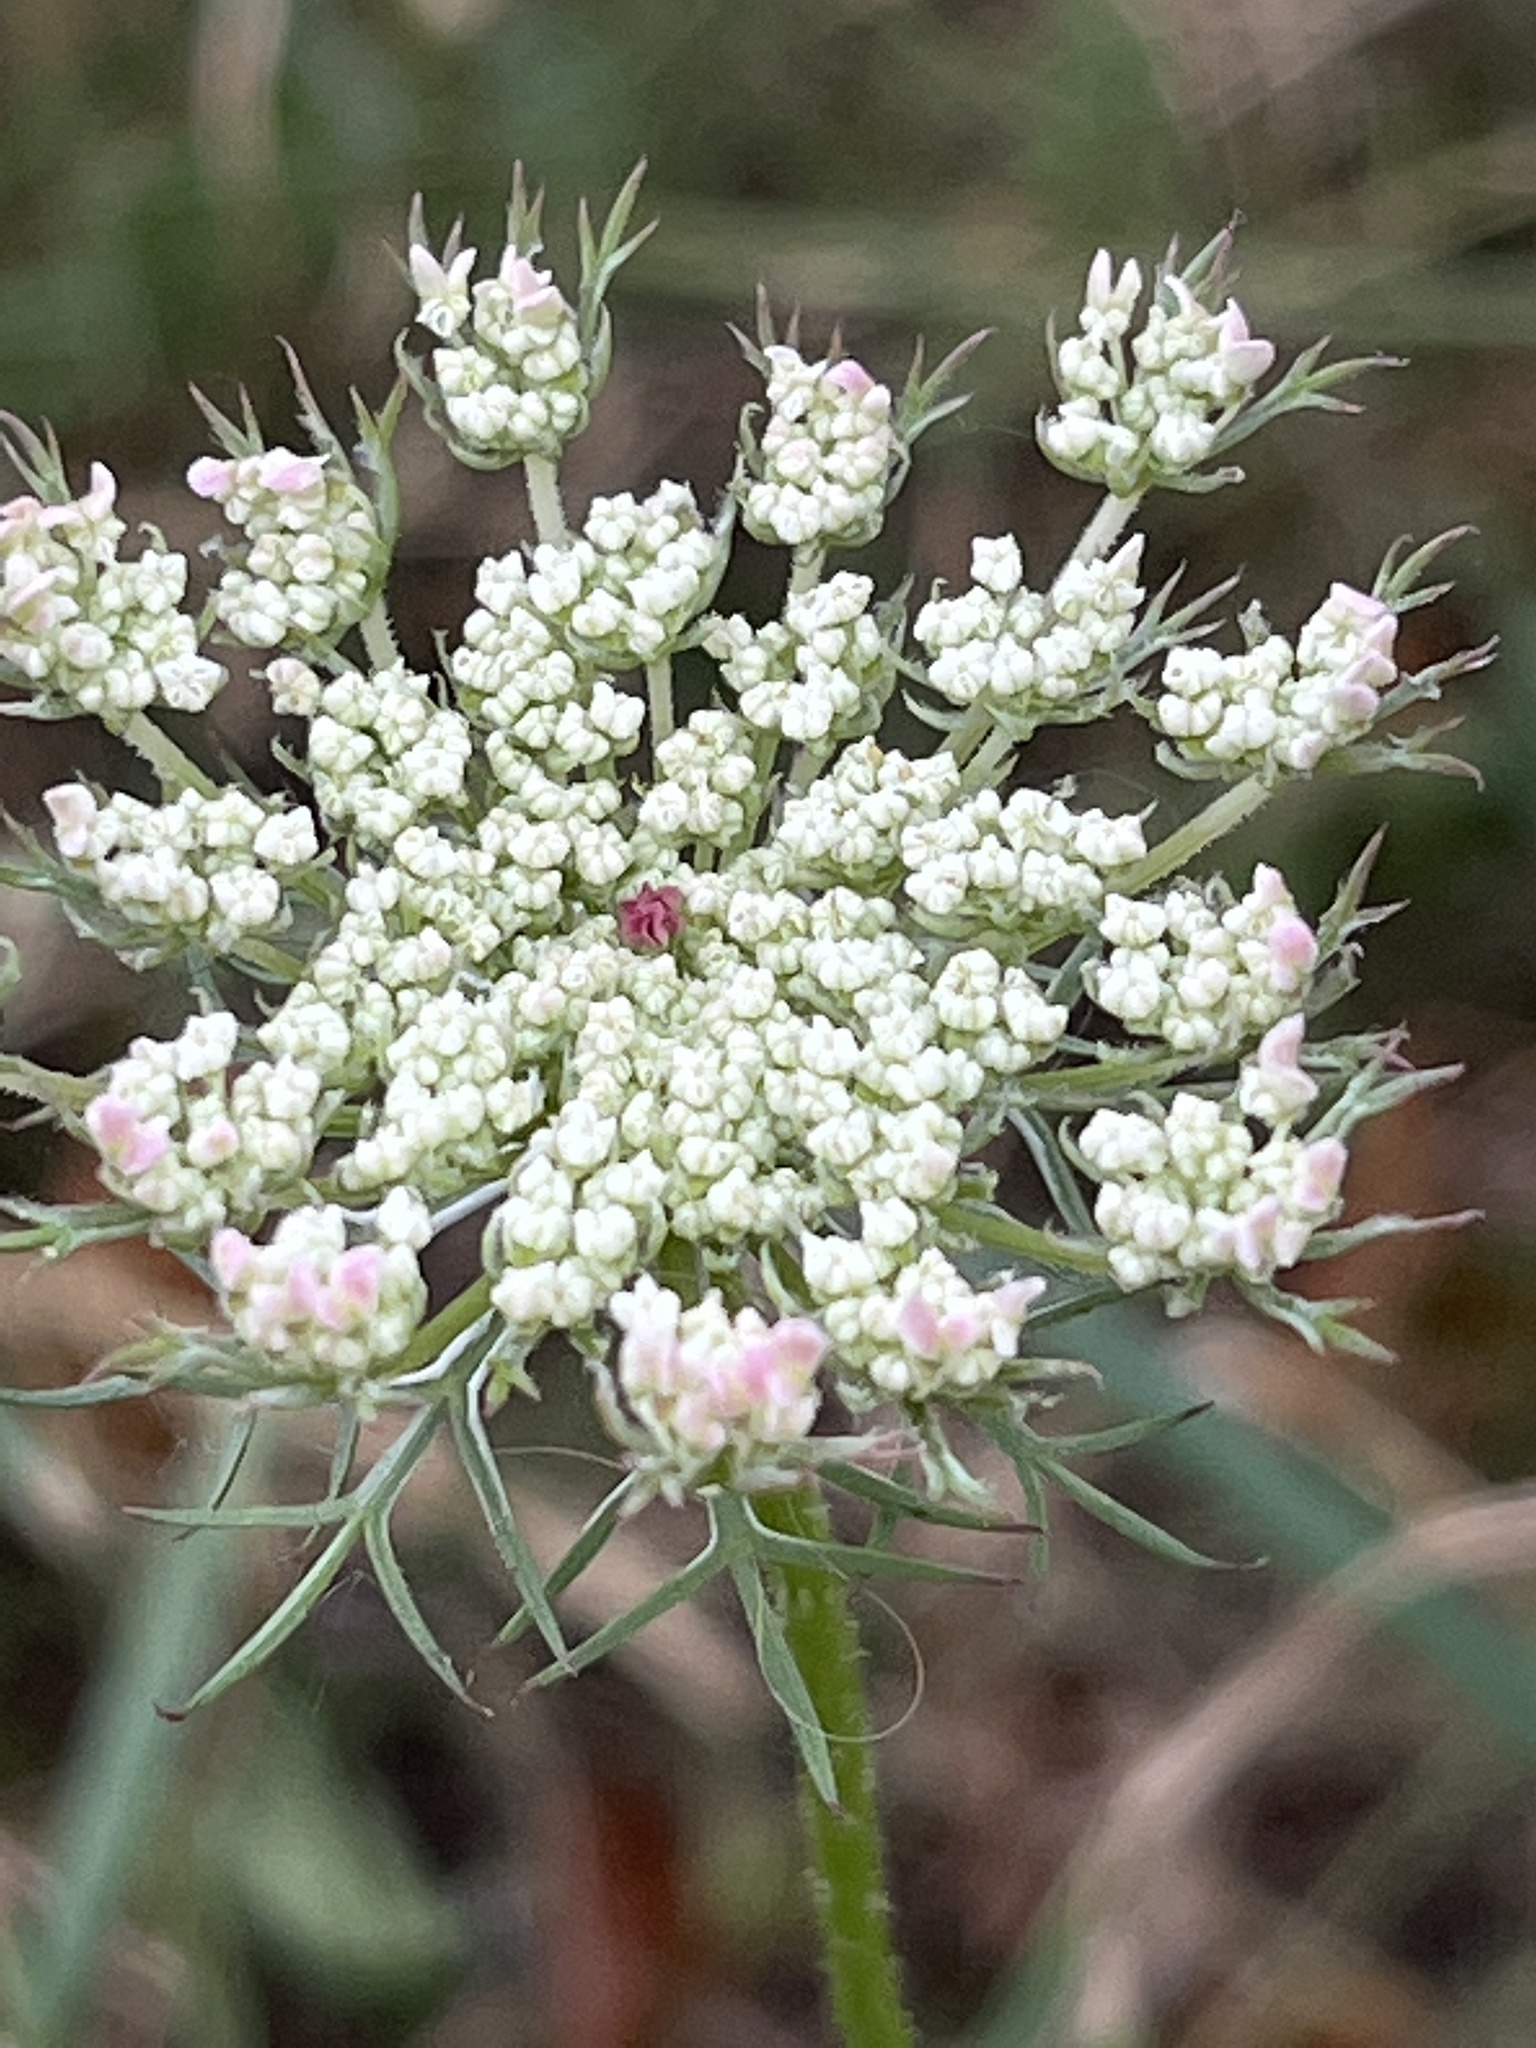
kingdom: Plantae
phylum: Tracheophyta
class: Magnoliopsida
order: Apiales
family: Apiaceae
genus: Daucus
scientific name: Daucus carota
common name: Wild carrot
